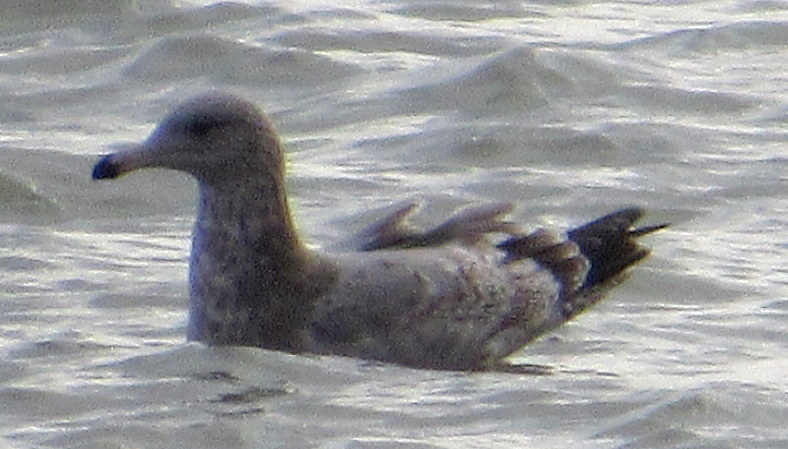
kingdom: Animalia
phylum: Chordata
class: Aves
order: Charadriiformes
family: Laridae
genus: Larus
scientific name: Larus delawarensis
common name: Ring-billed gull
